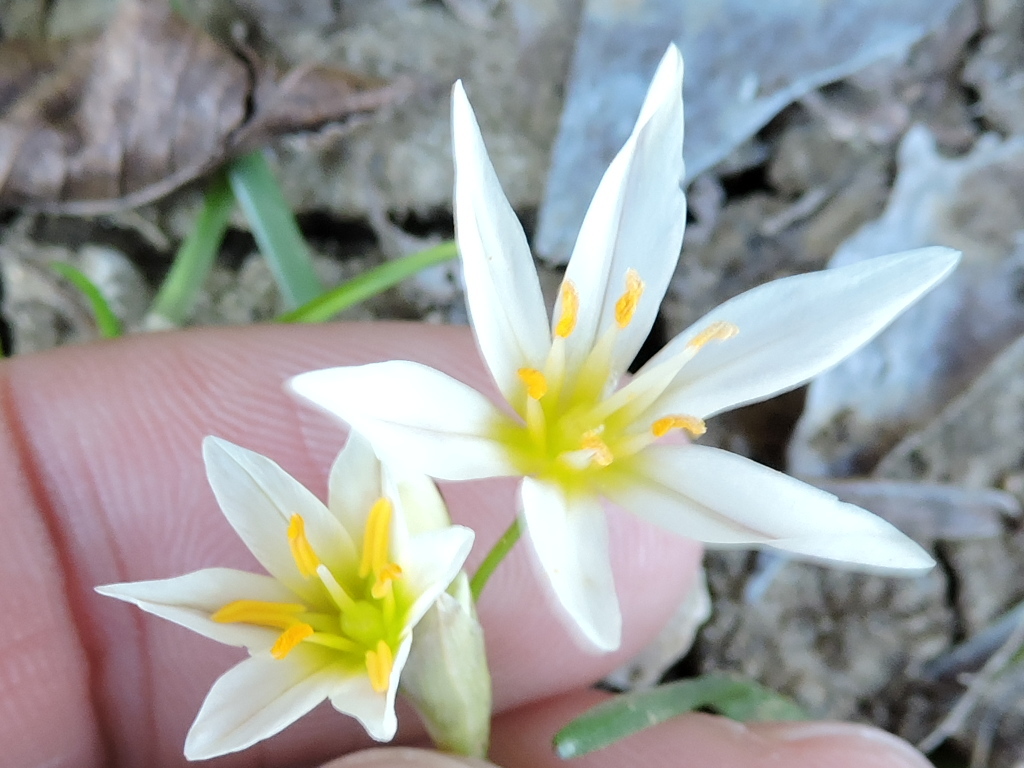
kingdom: Plantae
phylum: Tracheophyta
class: Liliopsida
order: Asparagales
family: Amaryllidaceae
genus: Nothoscordum
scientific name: Nothoscordum bivalve
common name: Crow-poison
